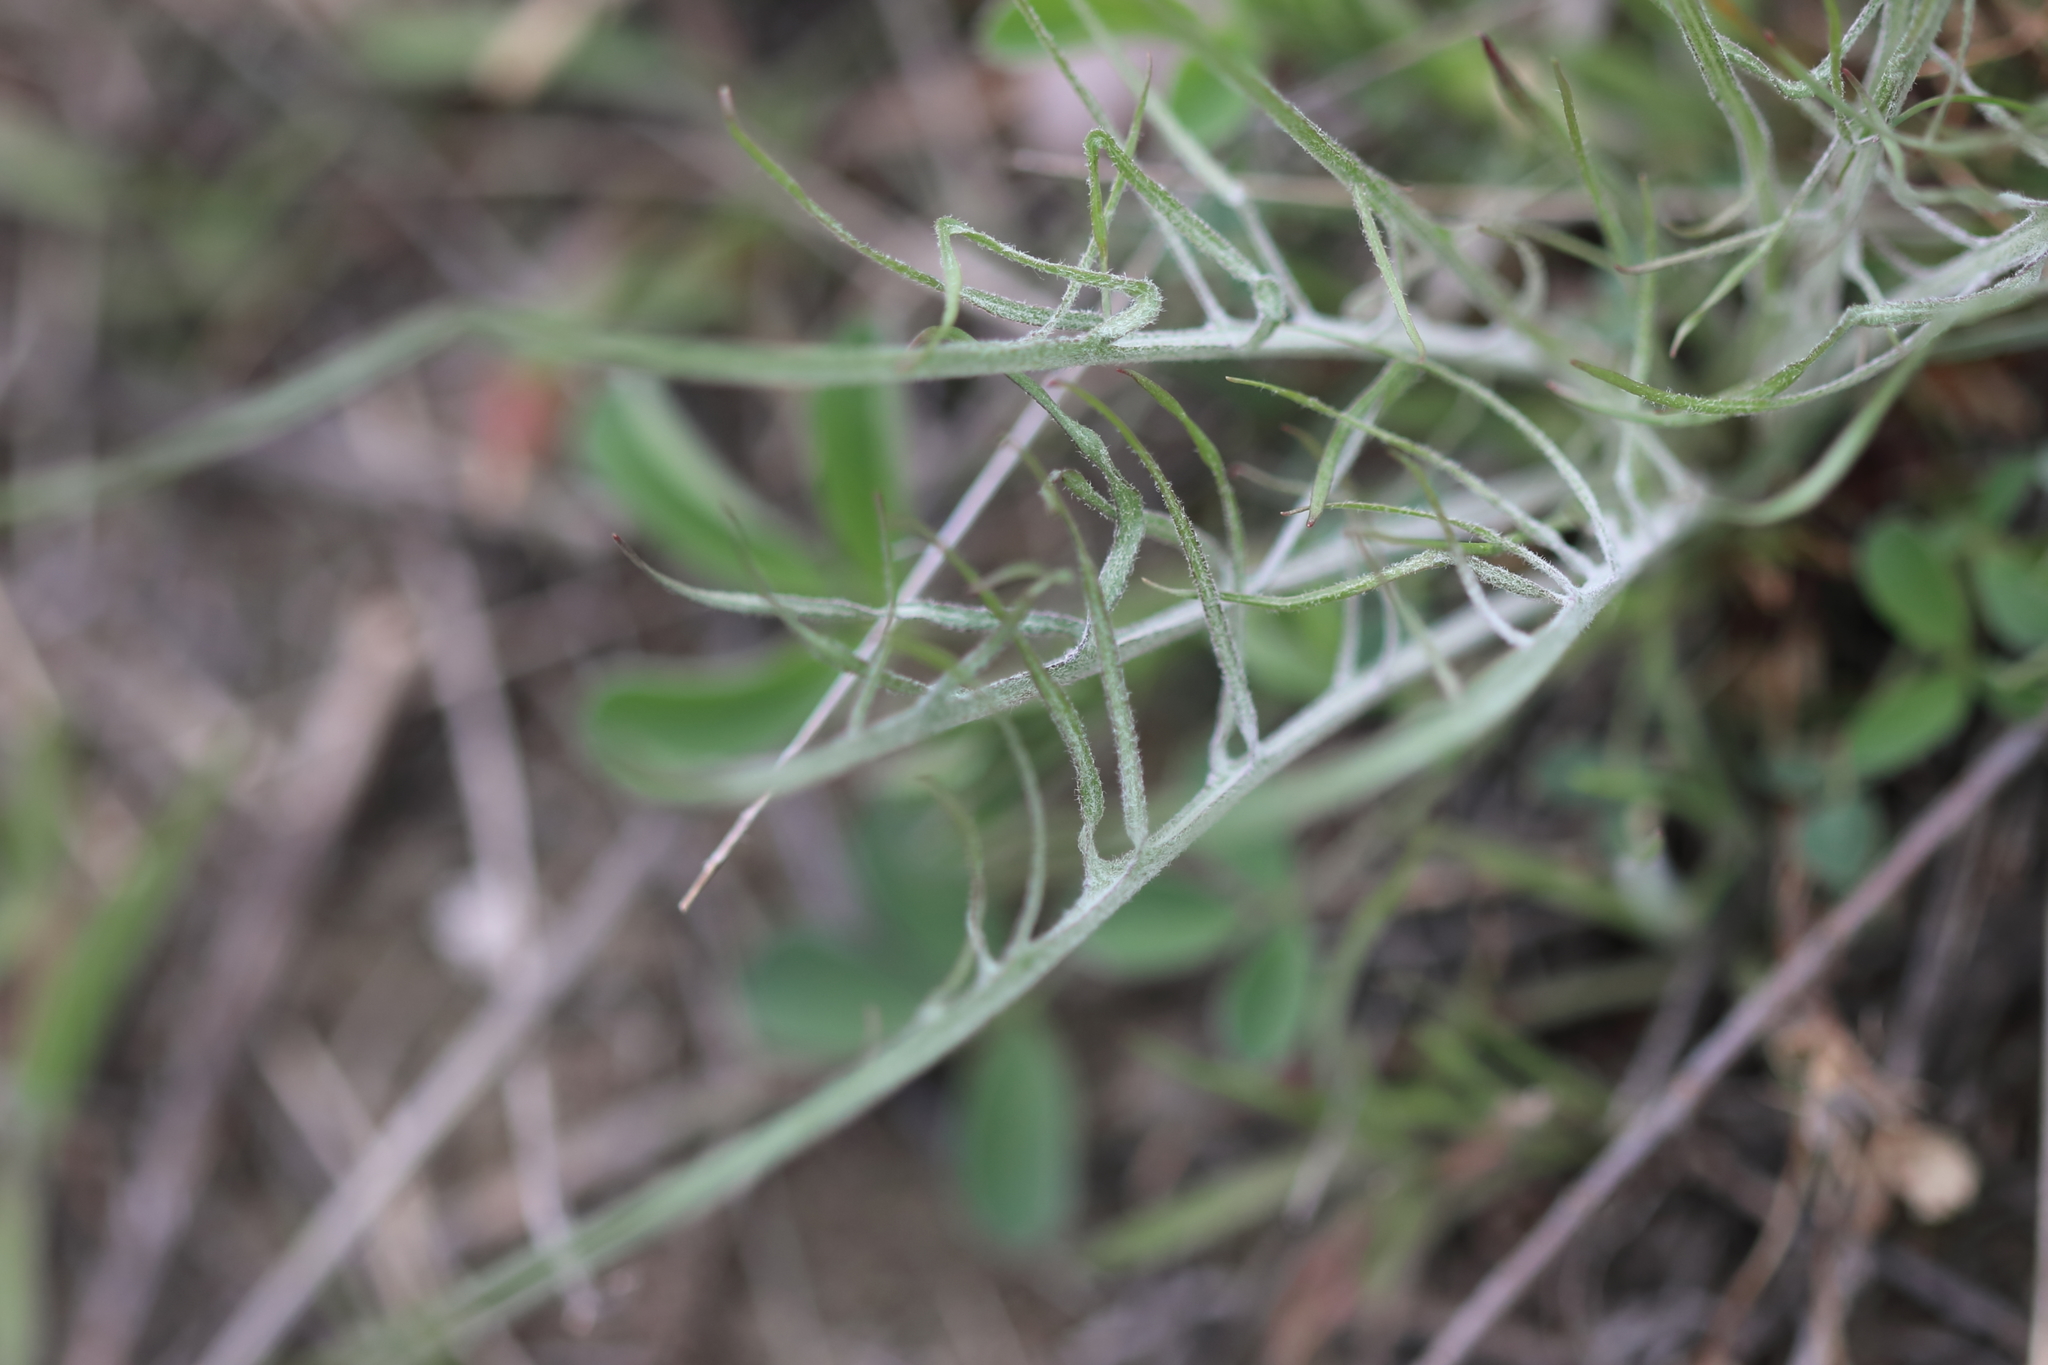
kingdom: Plantae
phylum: Tracheophyta
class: Magnoliopsida
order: Asterales
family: Asteraceae
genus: Crepis
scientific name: Crepis atribarba
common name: Dark hawk's-beard
